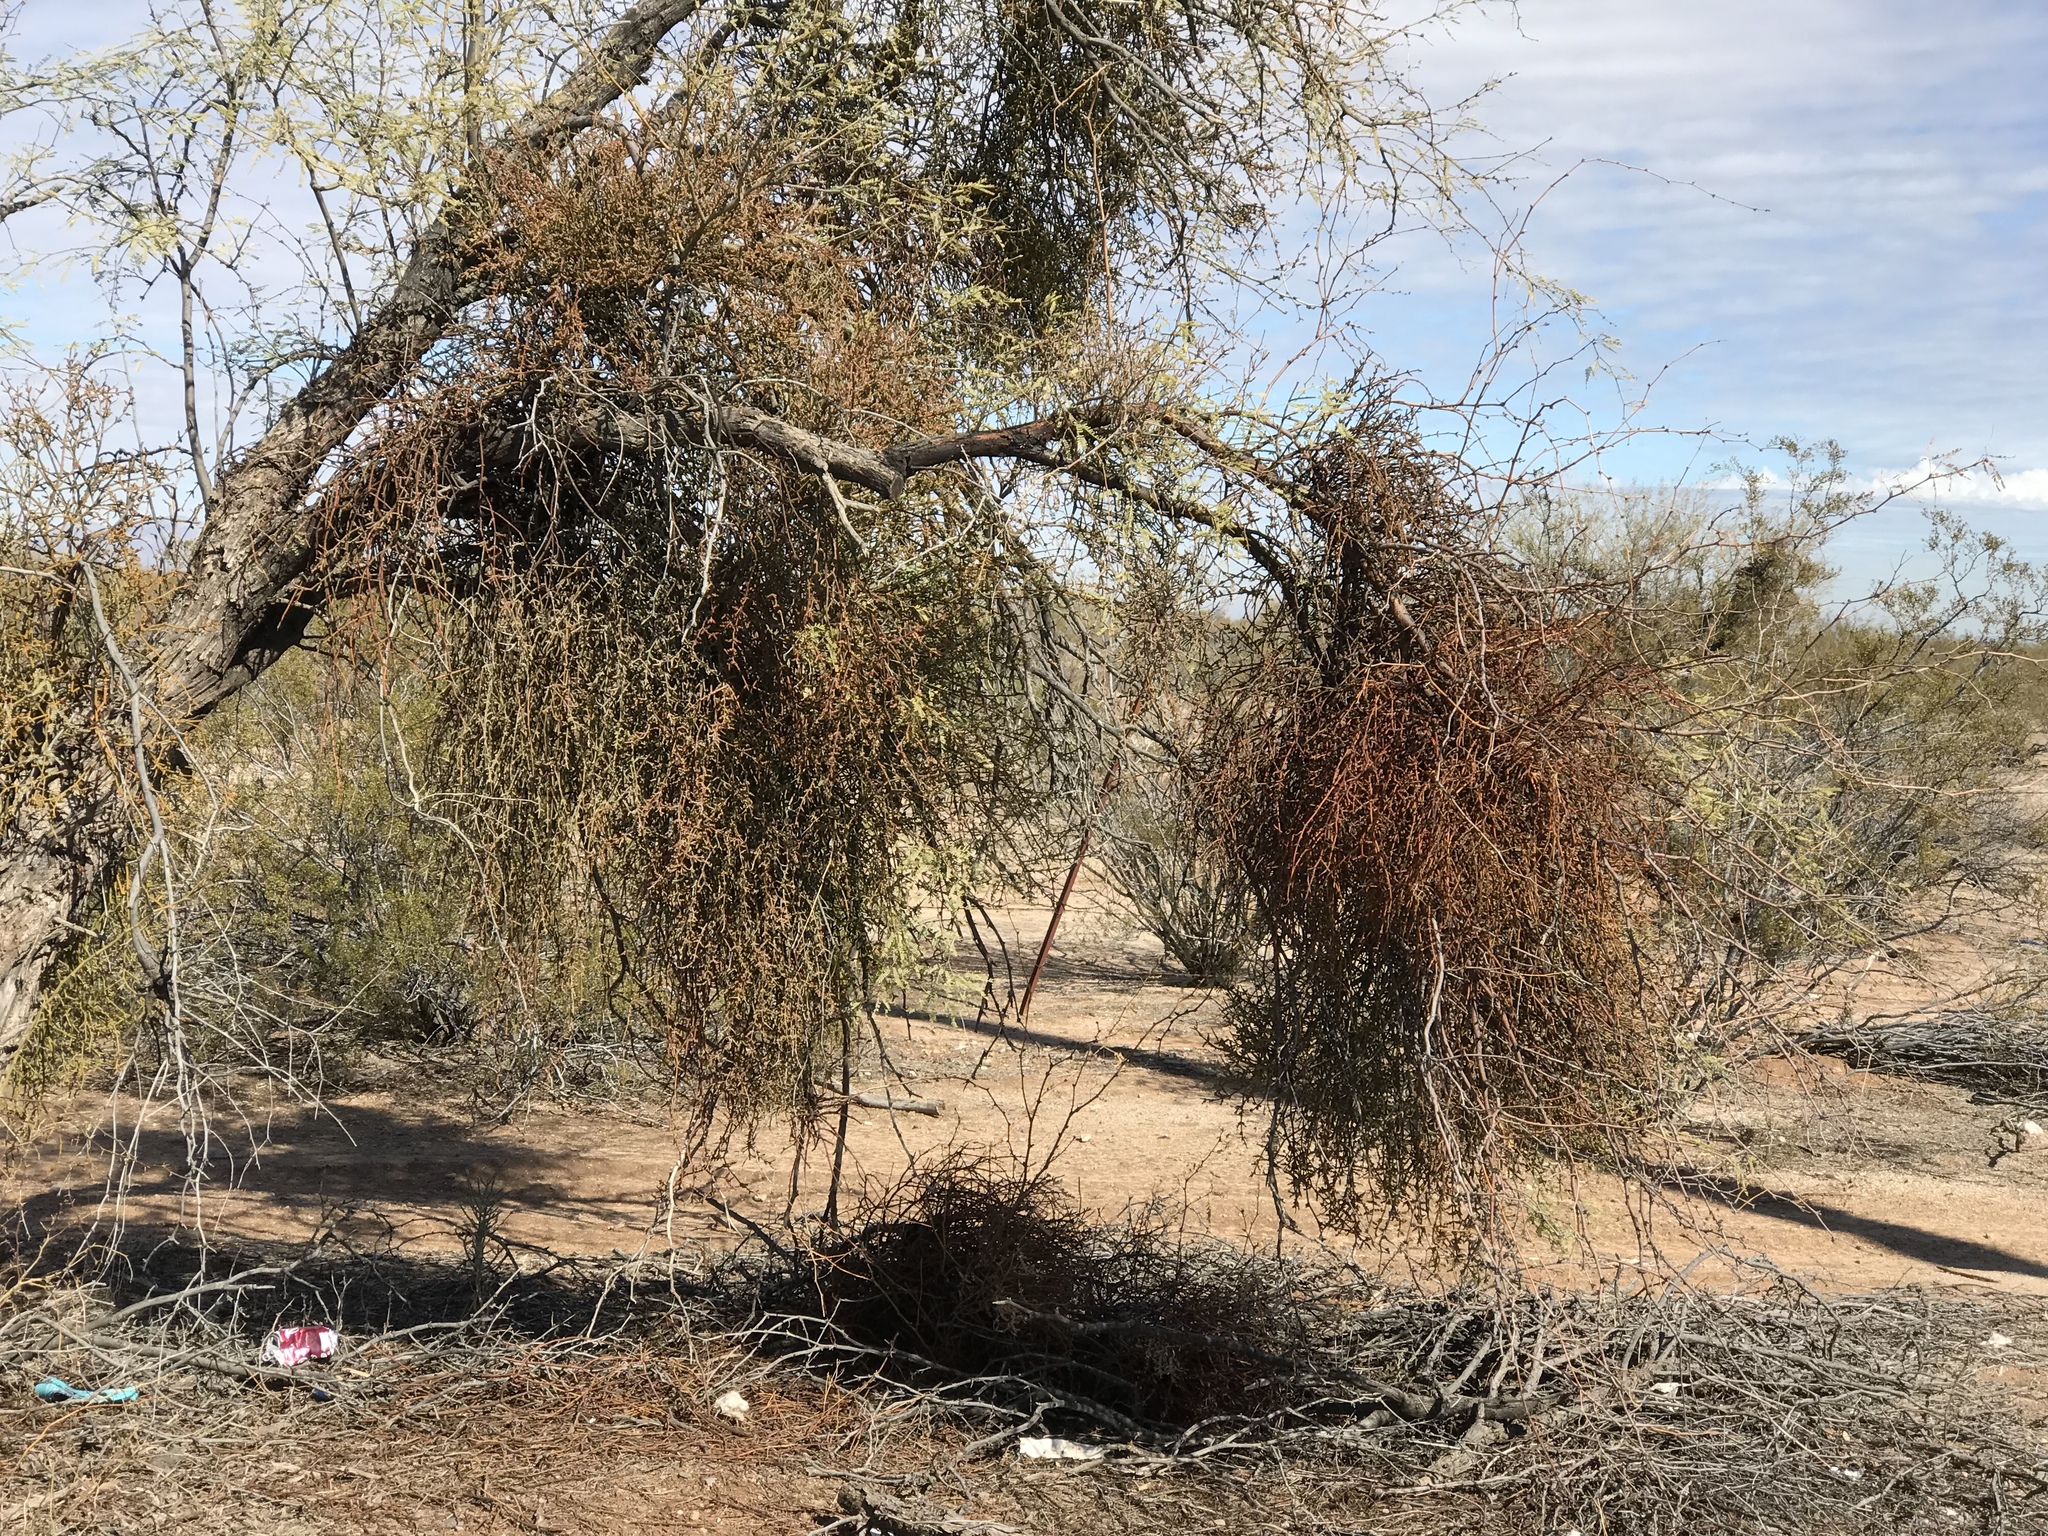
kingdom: Plantae
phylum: Tracheophyta
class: Magnoliopsida
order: Santalales
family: Viscaceae
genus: Phoradendron
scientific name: Phoradendron californicum
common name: Acacia mistletoe
